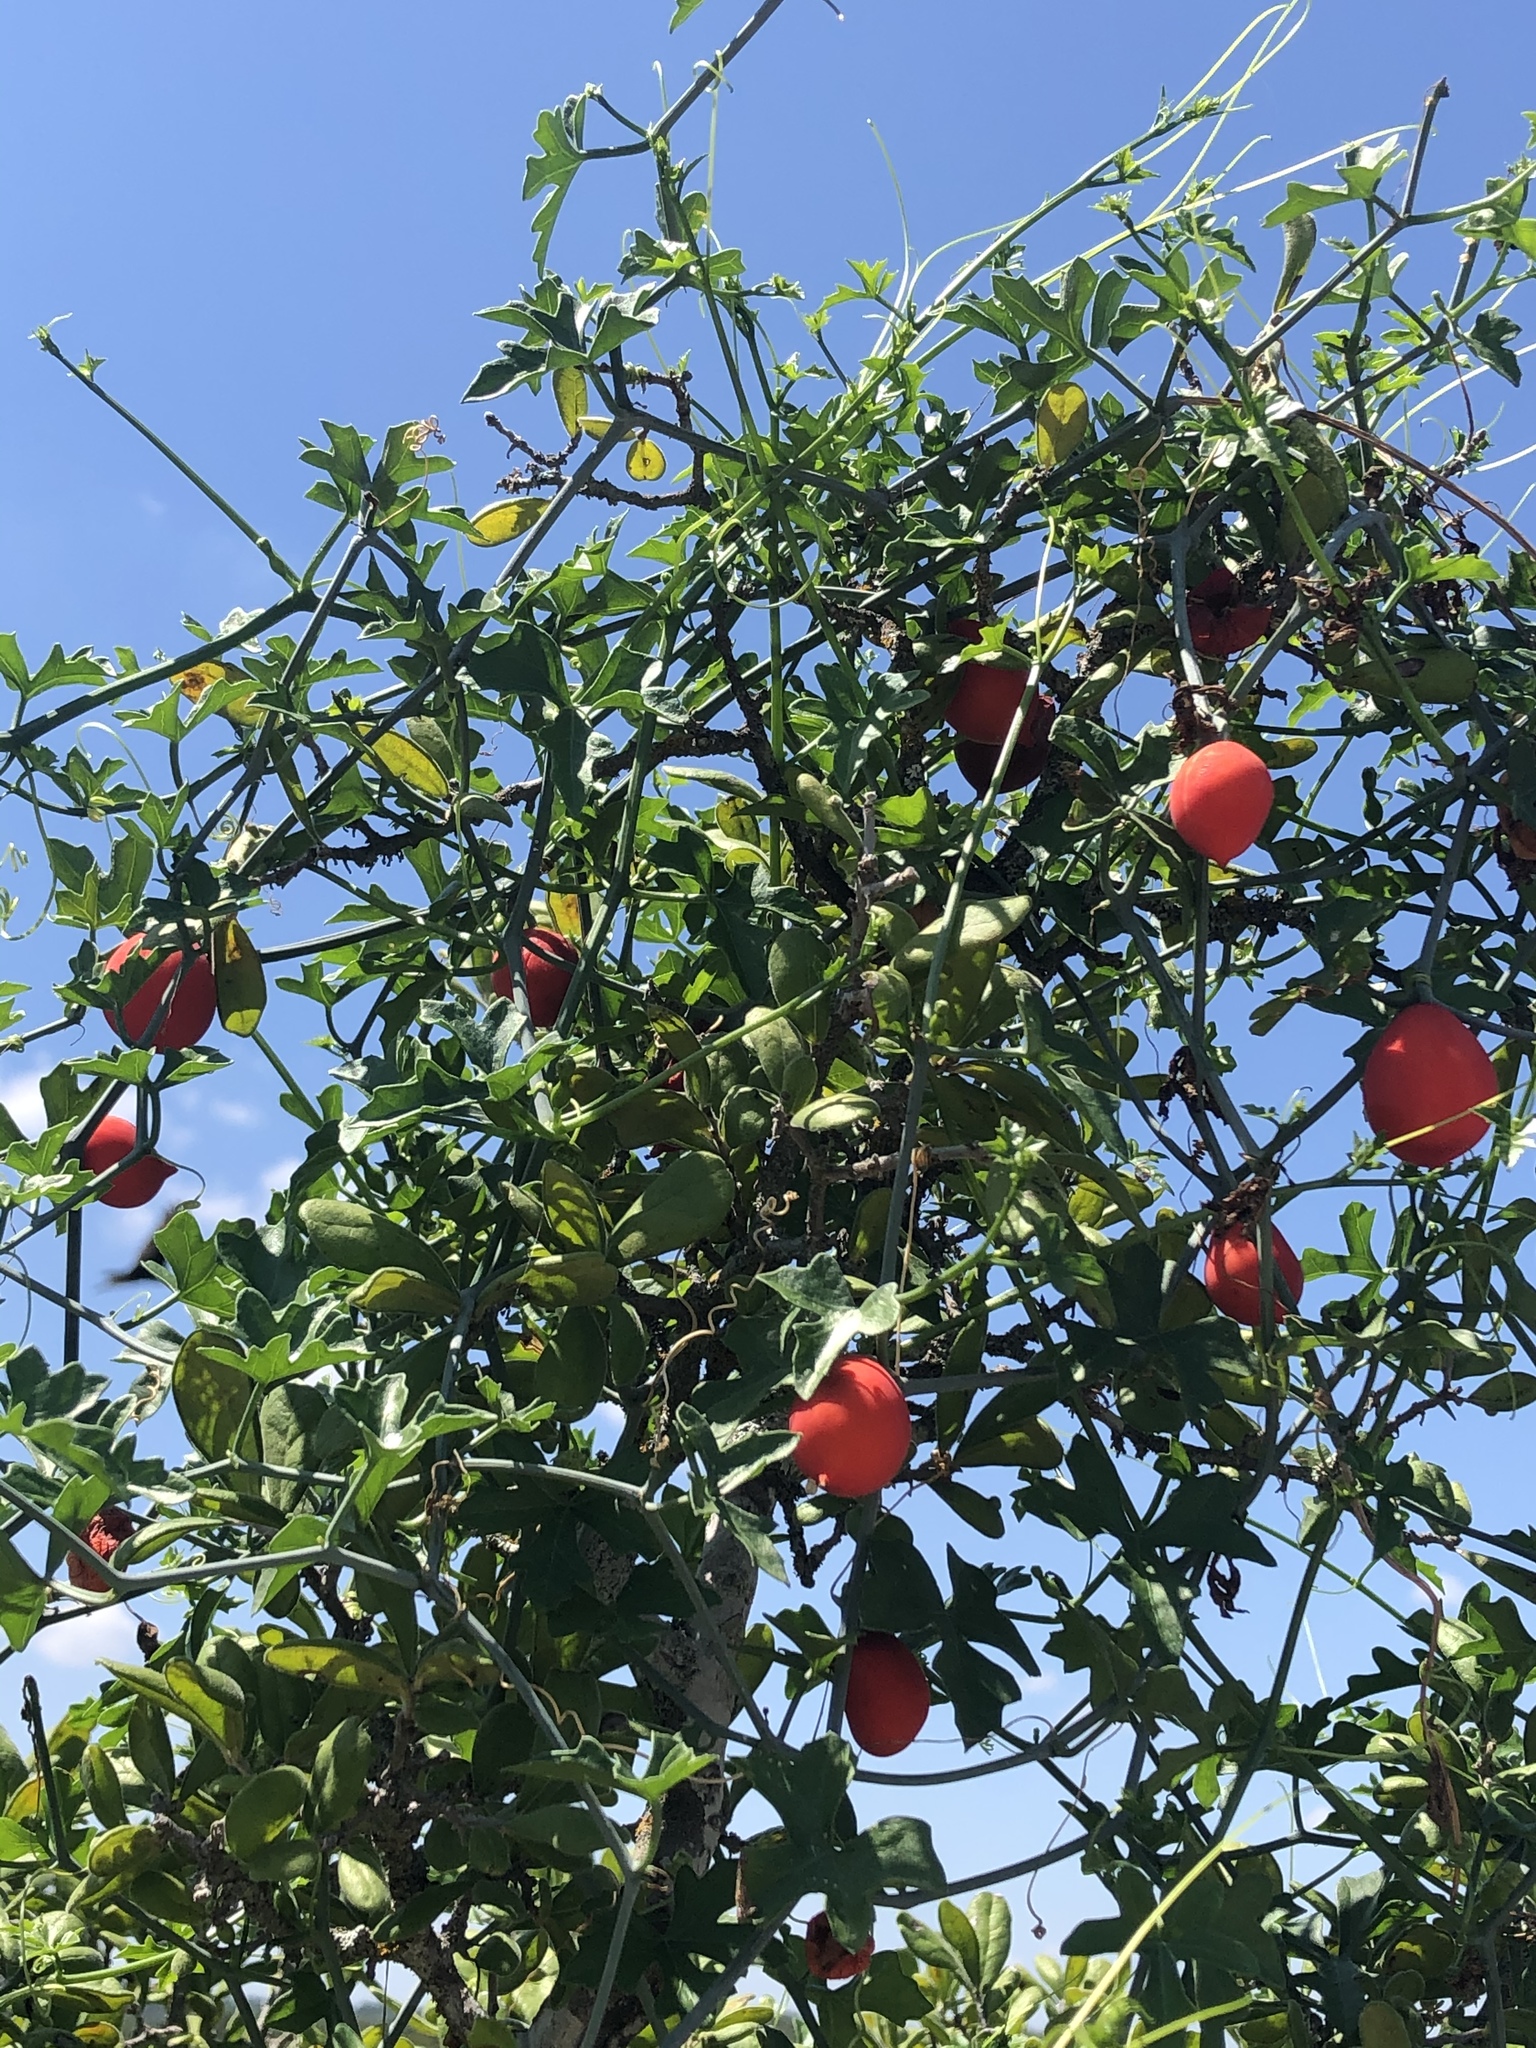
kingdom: Plantae
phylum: Tracheophyta
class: Magnoliopsida
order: Cucurbitales
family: Cucurbitaceae
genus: Ibervillea
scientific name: Ibervillea lindheimeri
